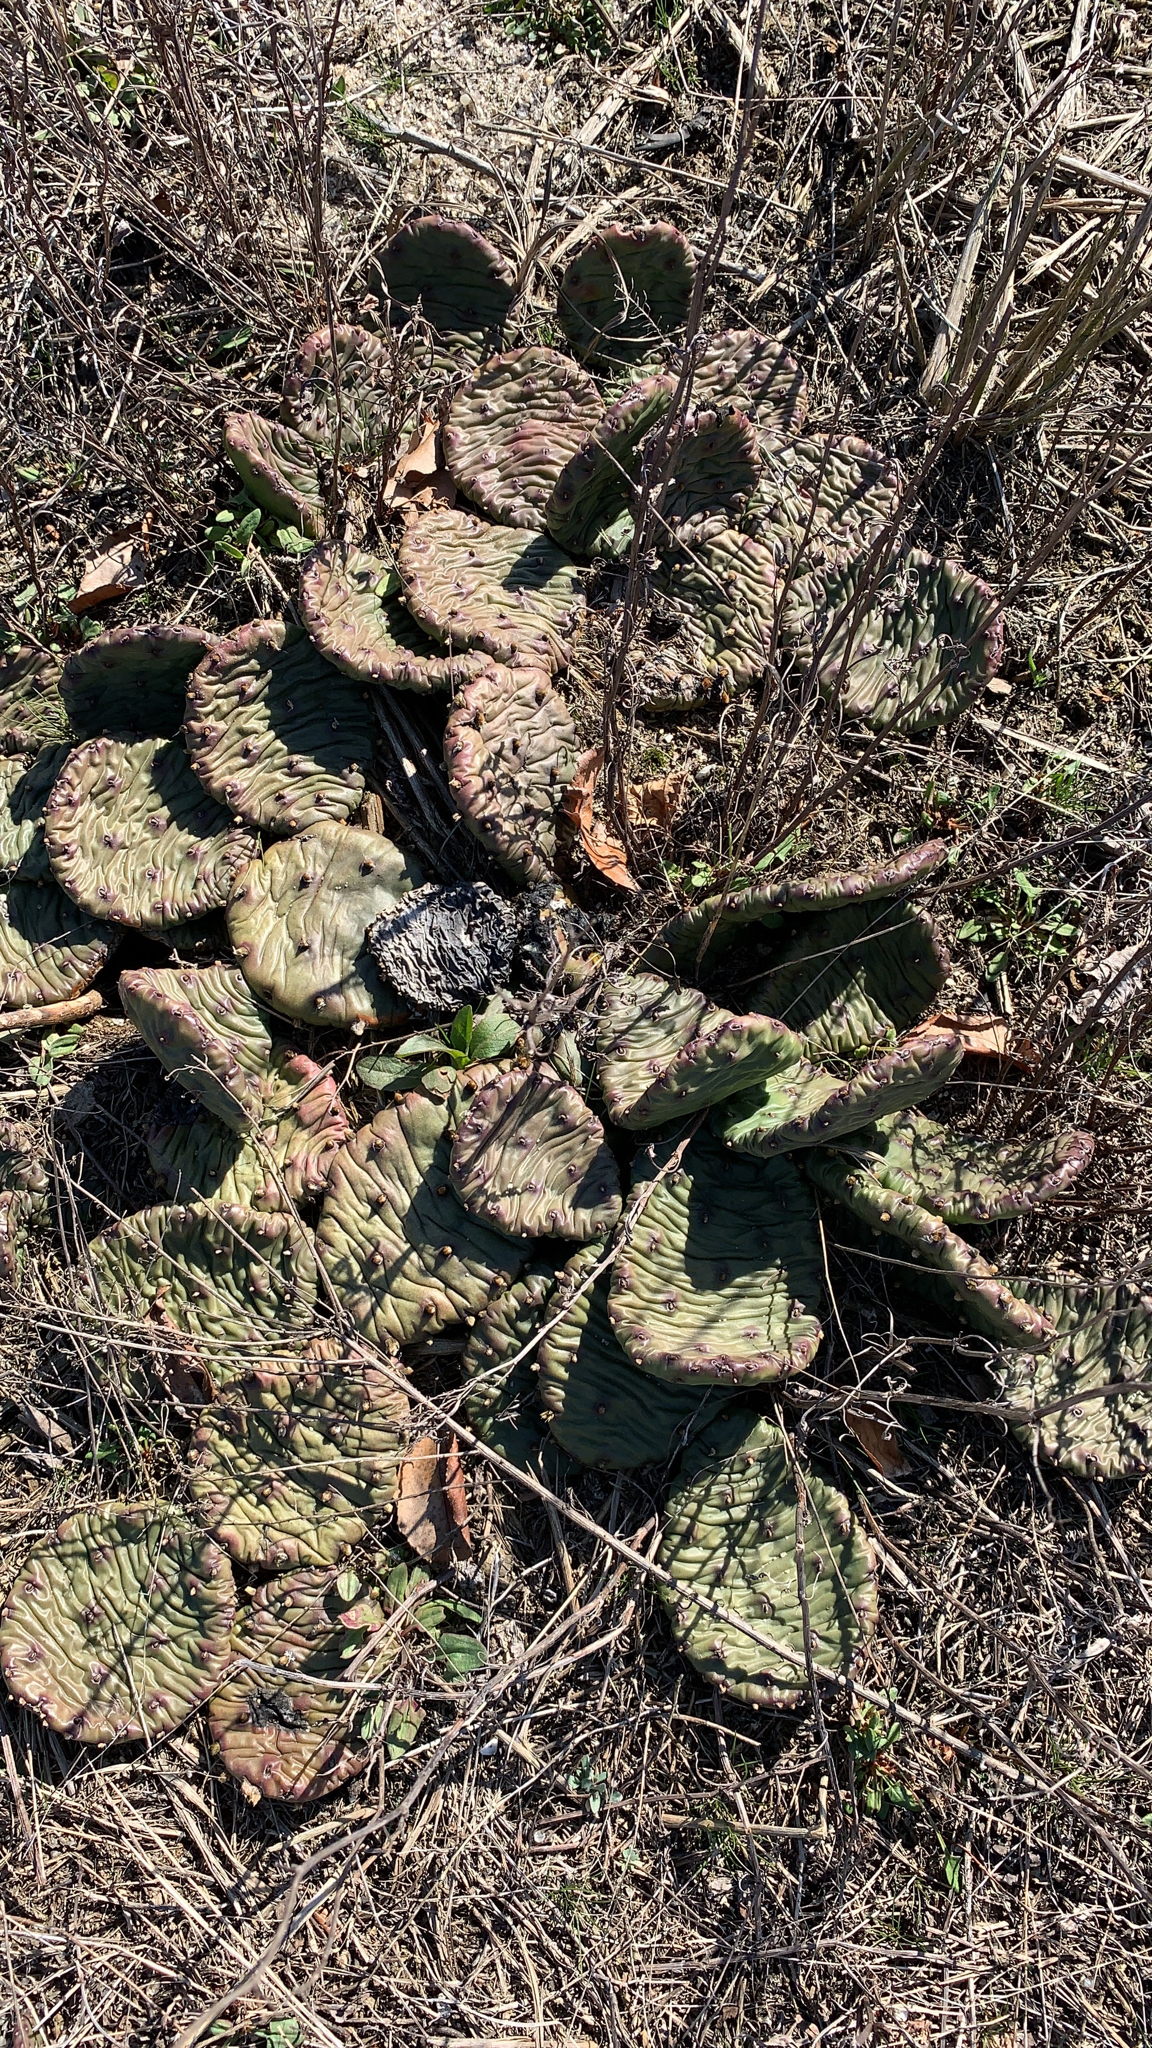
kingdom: Plantae
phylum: Tracheophyta
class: Magnoliopsida
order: Caryophyllales
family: Cactaceae
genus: Opuntia
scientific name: Opuntia humifusa
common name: Eastern prickly-pear
